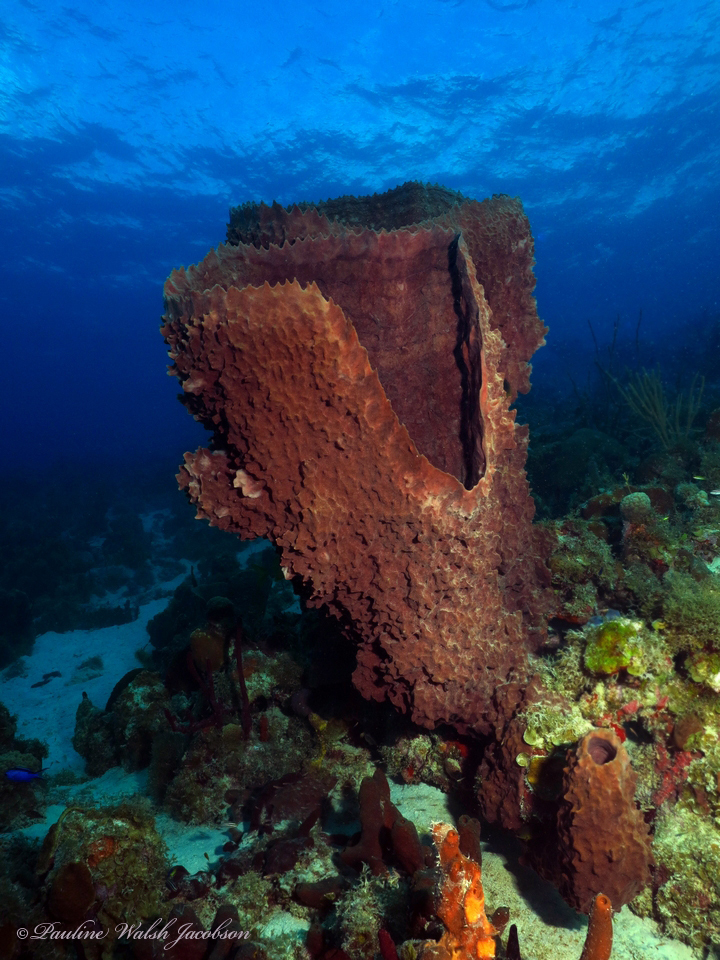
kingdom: Animalia
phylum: Porifera
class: Demospongiae
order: Haplosclerida
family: Petrosiidae
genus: Xestospongia
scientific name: Xestospongia muta
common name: Giant barrel sponge
